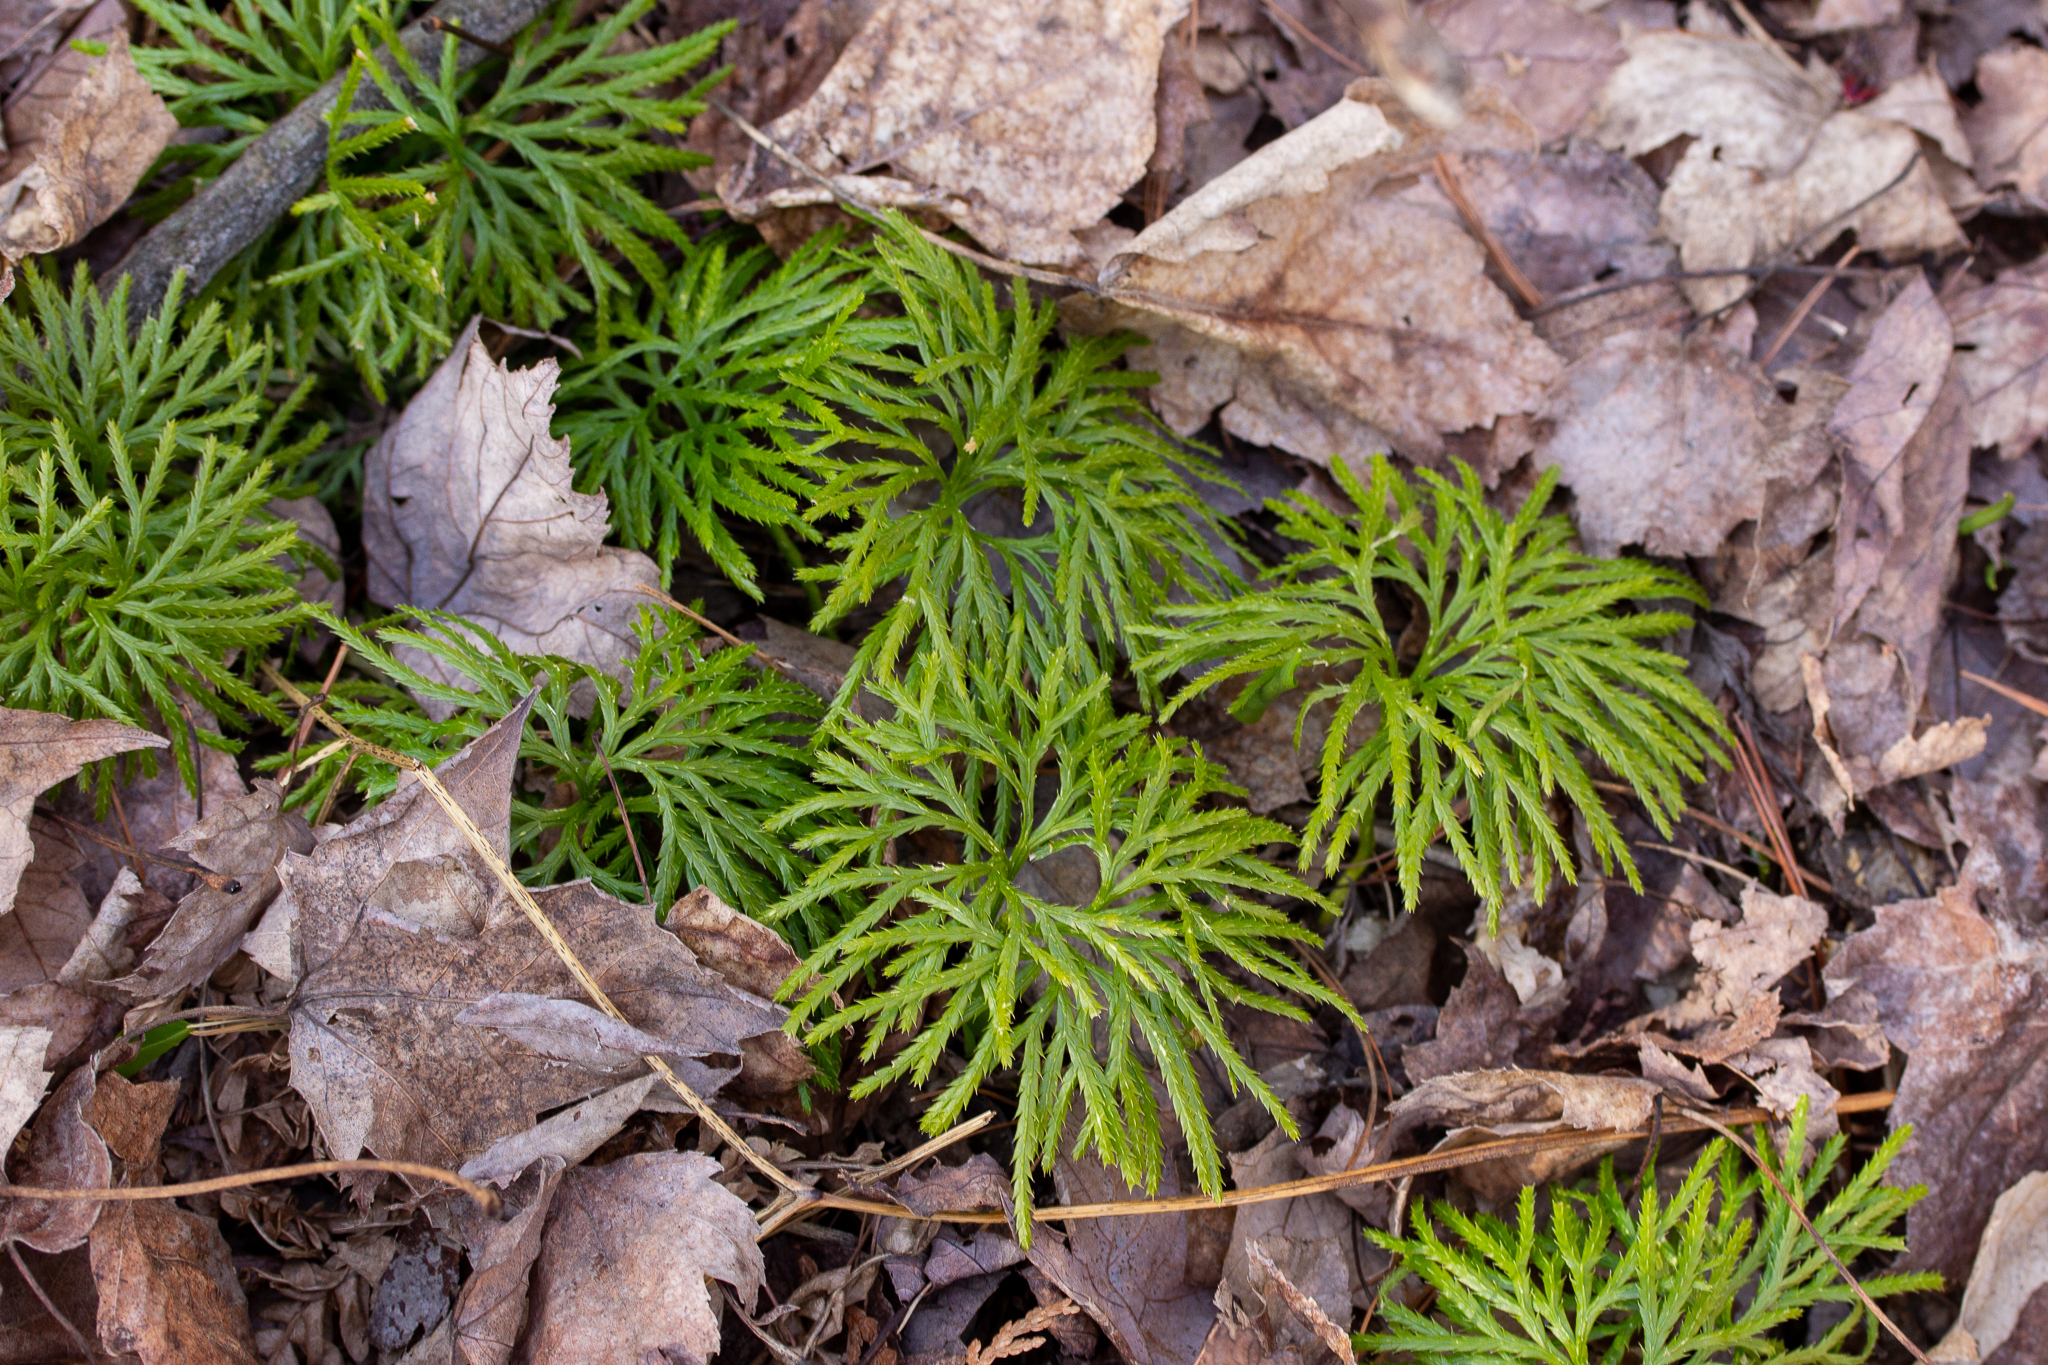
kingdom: Plantae
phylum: Tracheophyta
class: Lycopodiopsida
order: Lycopodiales
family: Lycopodiaceae
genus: Diphasiastrum
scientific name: Diphasiastrum digitatum
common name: Southern running-pine
